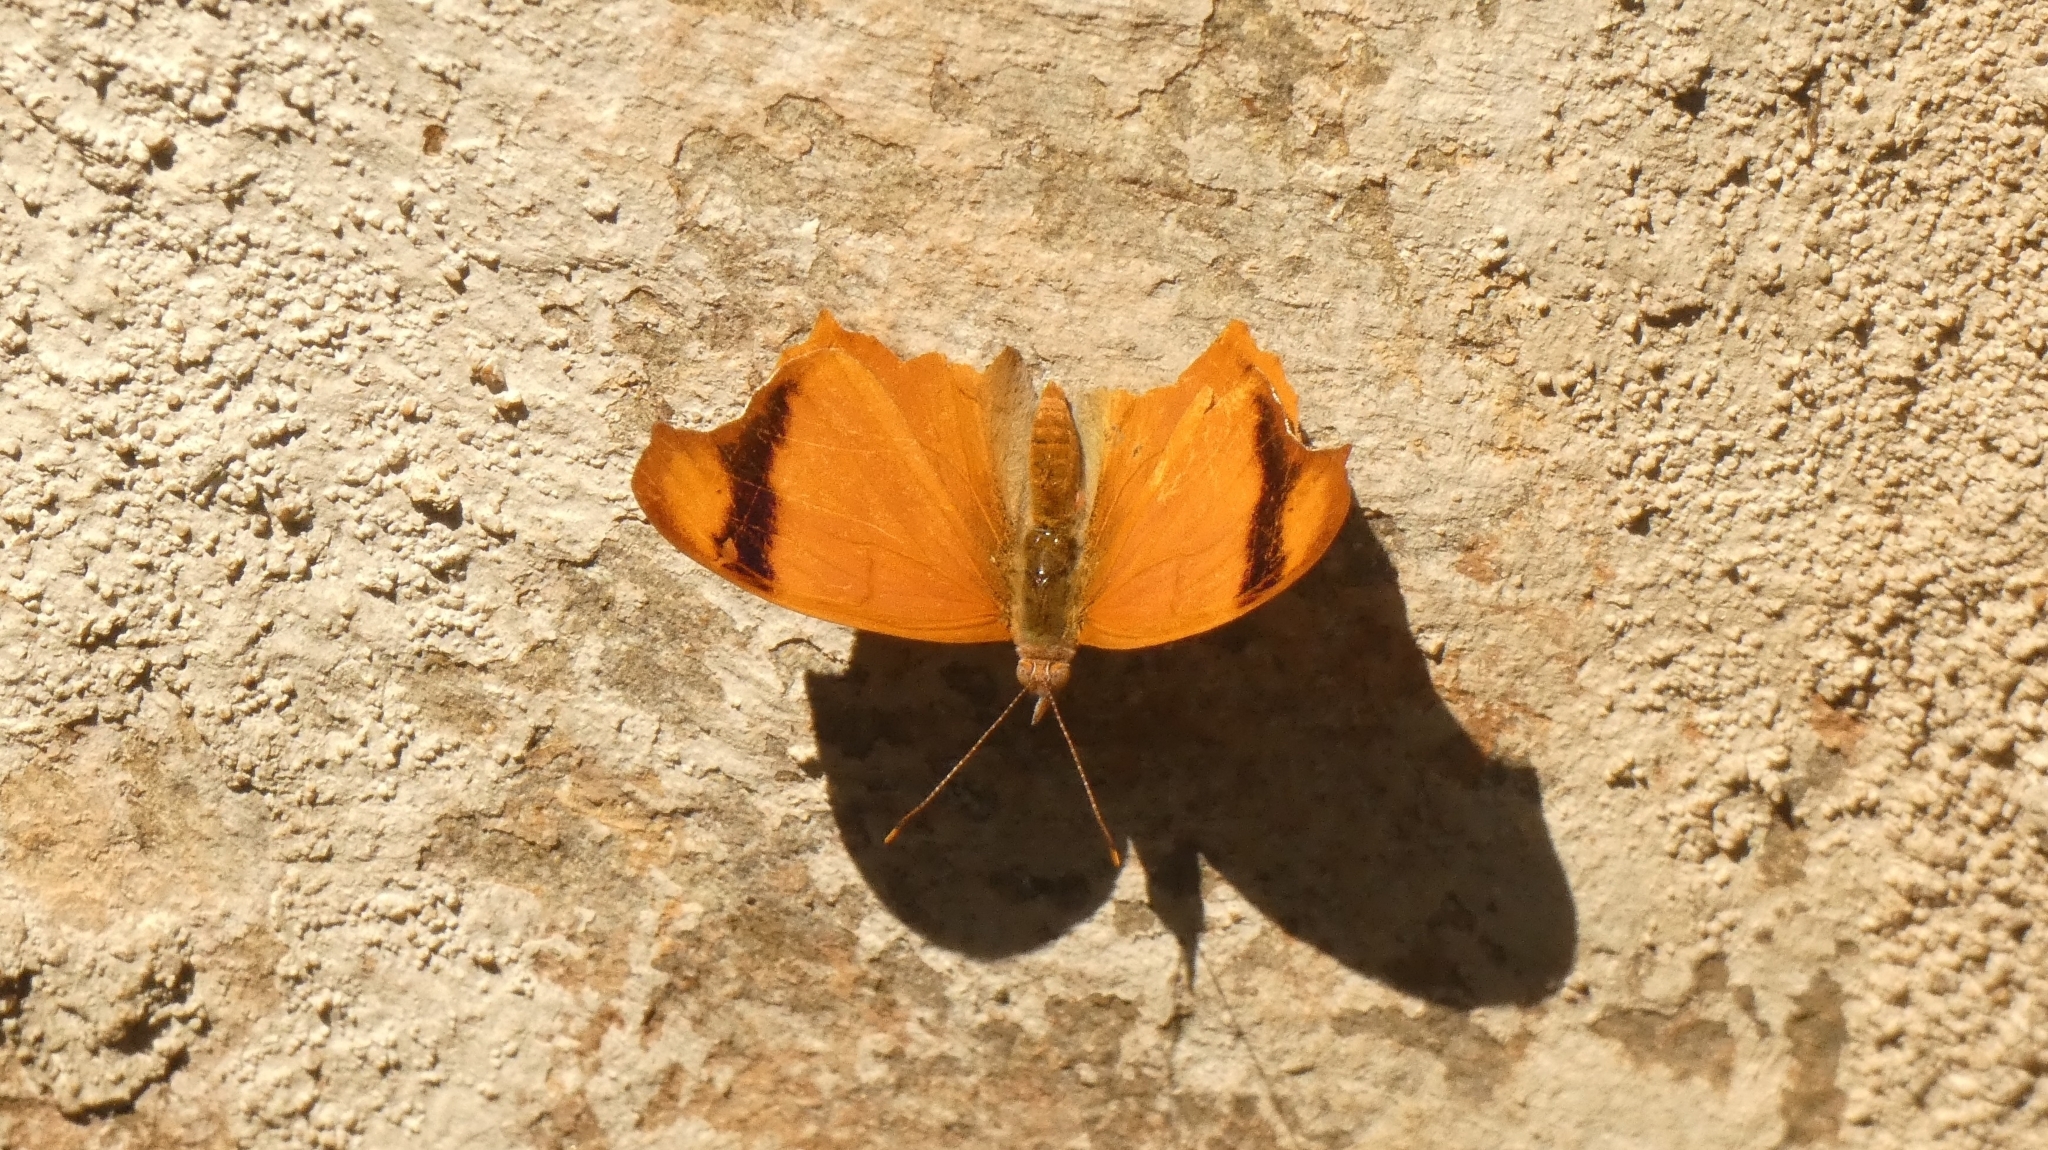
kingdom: Animalia
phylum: Arthropoda
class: Insecta
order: Lepidoptera
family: Nymphalidae
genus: Temenis
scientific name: Temenis laothoe
